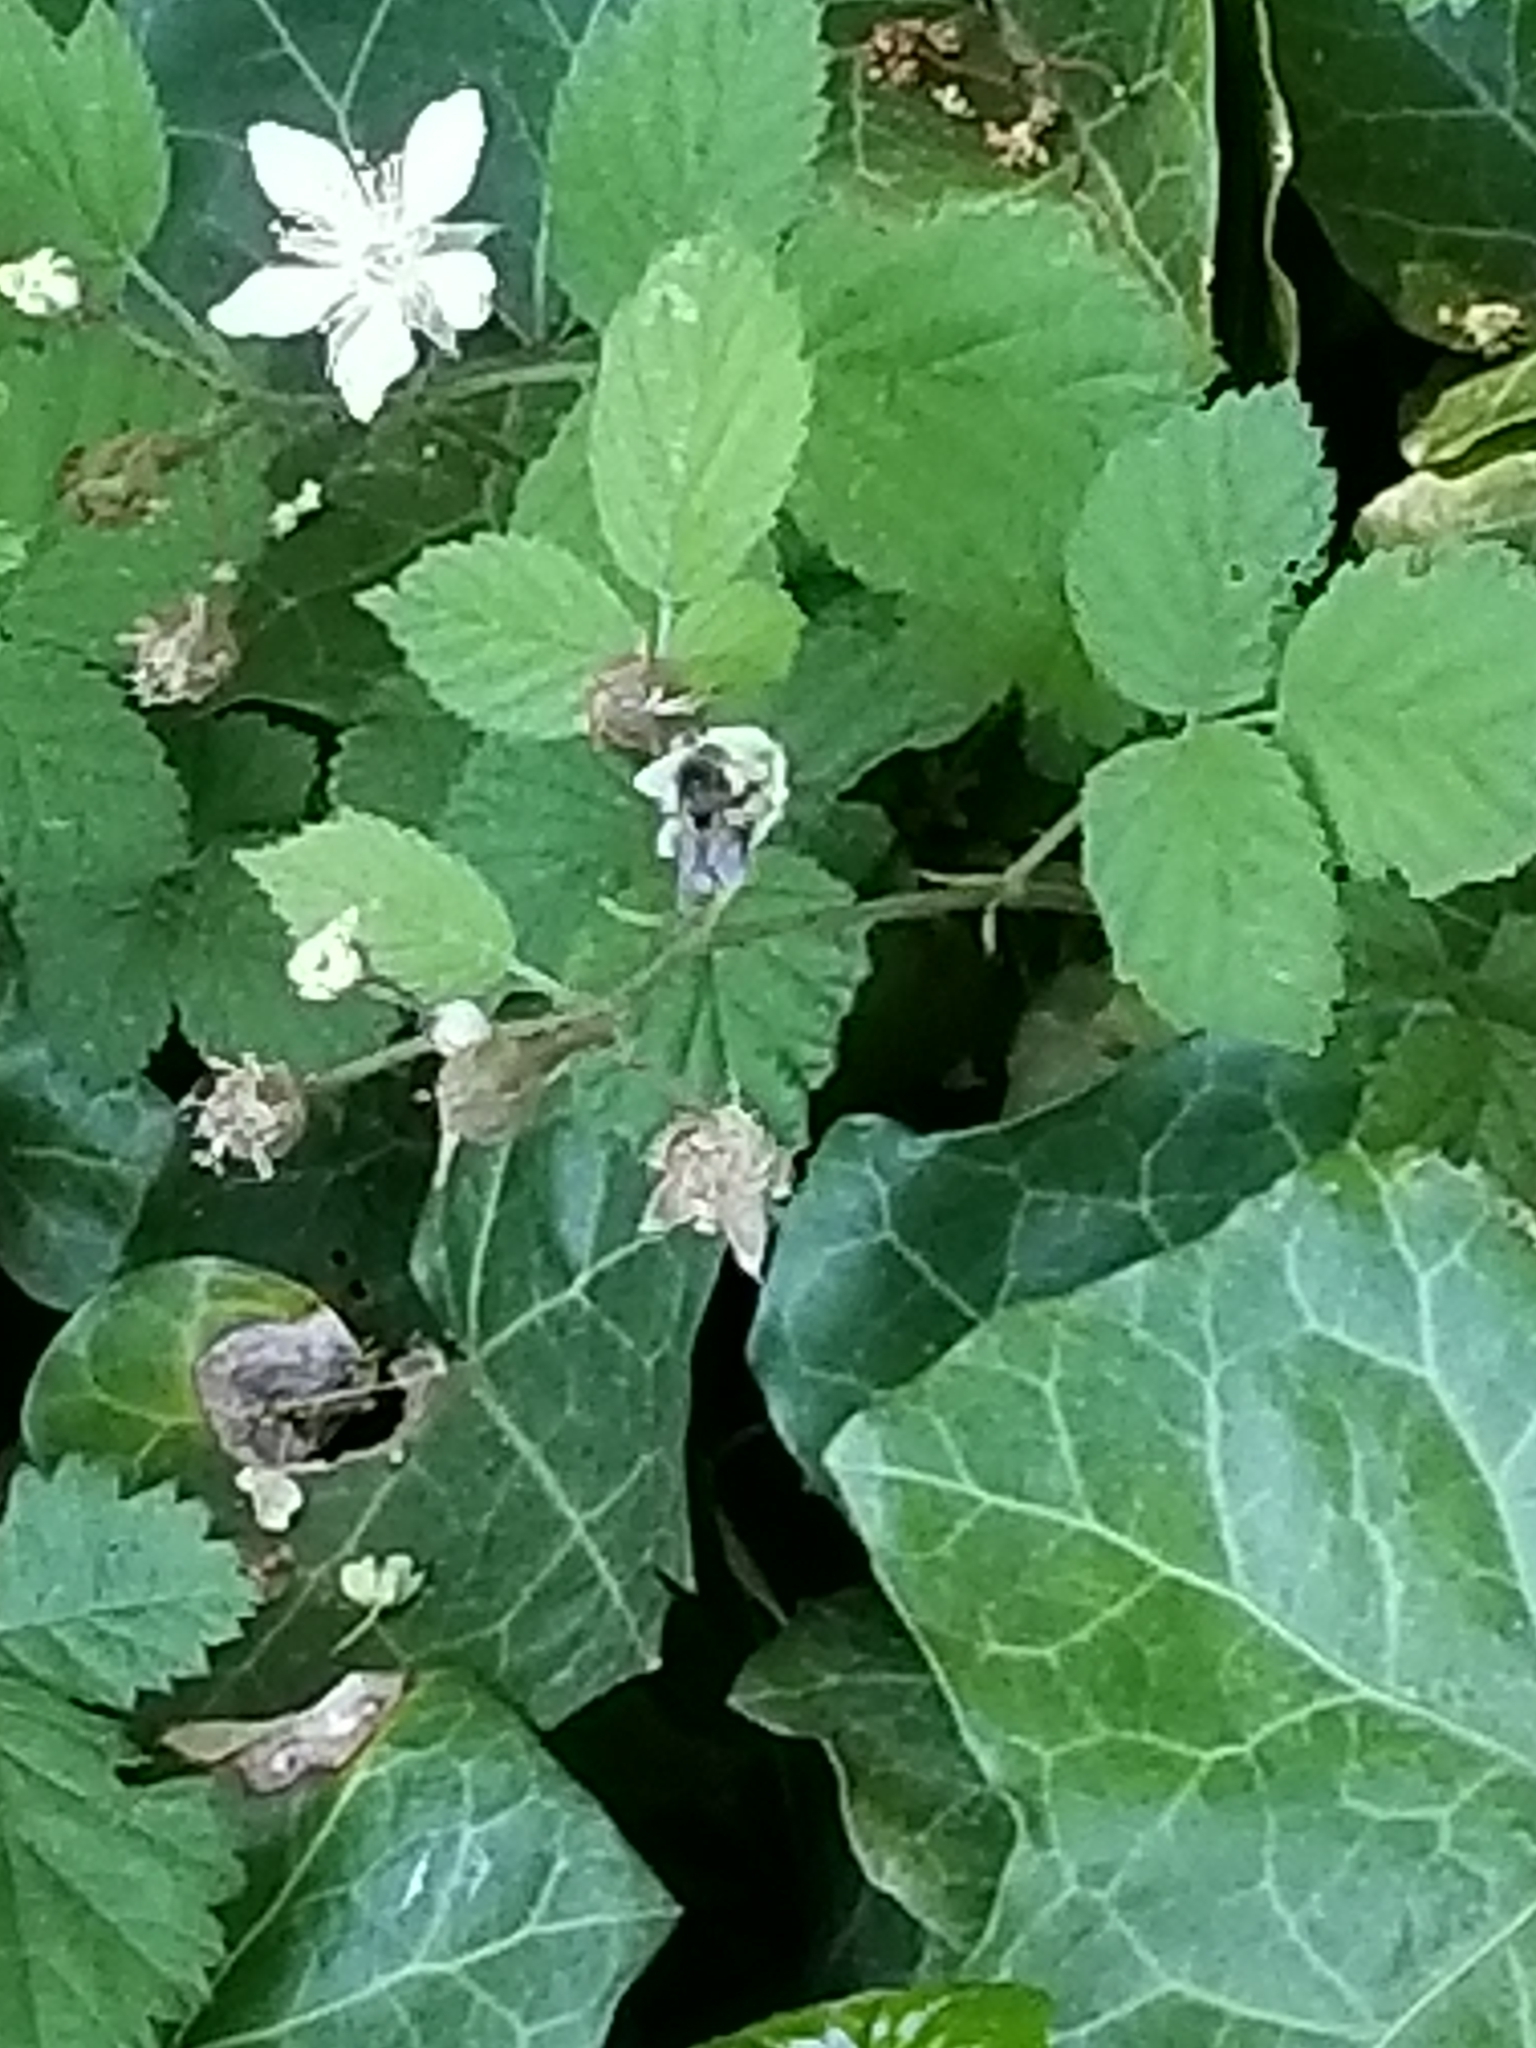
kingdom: Animalia
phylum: Arthropoda
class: Insecta
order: Hymenoptera
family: Apidae
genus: Bombus
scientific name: Bombus mixtus
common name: Fuzzy-horned bumble bee
